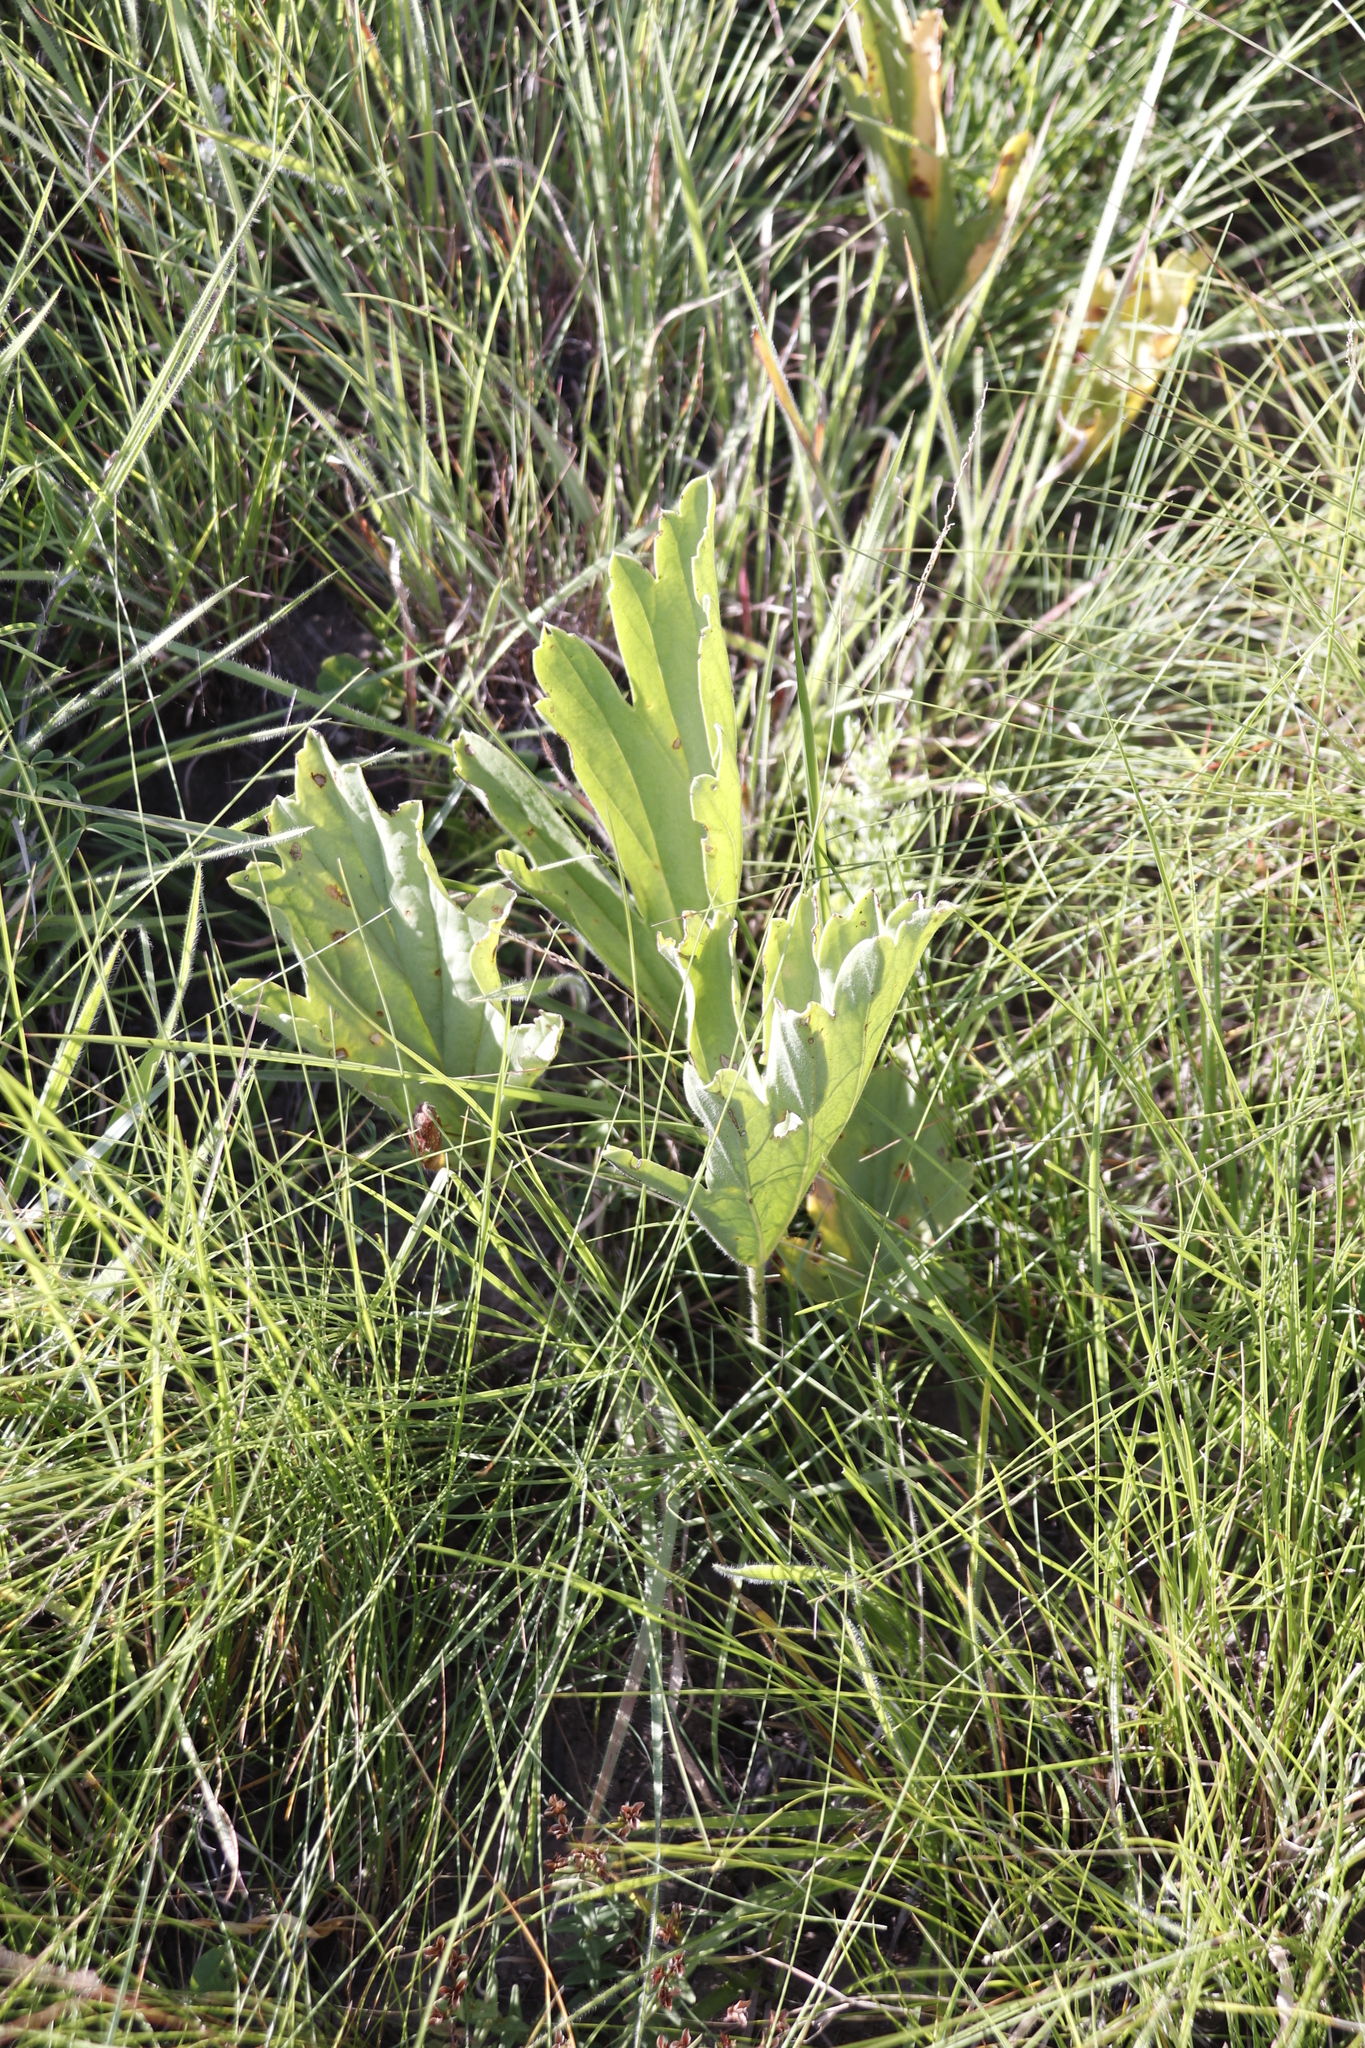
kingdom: Plantae
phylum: Tracheophyta
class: Magnoliopsida
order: Geraniales
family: Geraniaceae
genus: Pelargonium
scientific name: Pelargonium luridum
